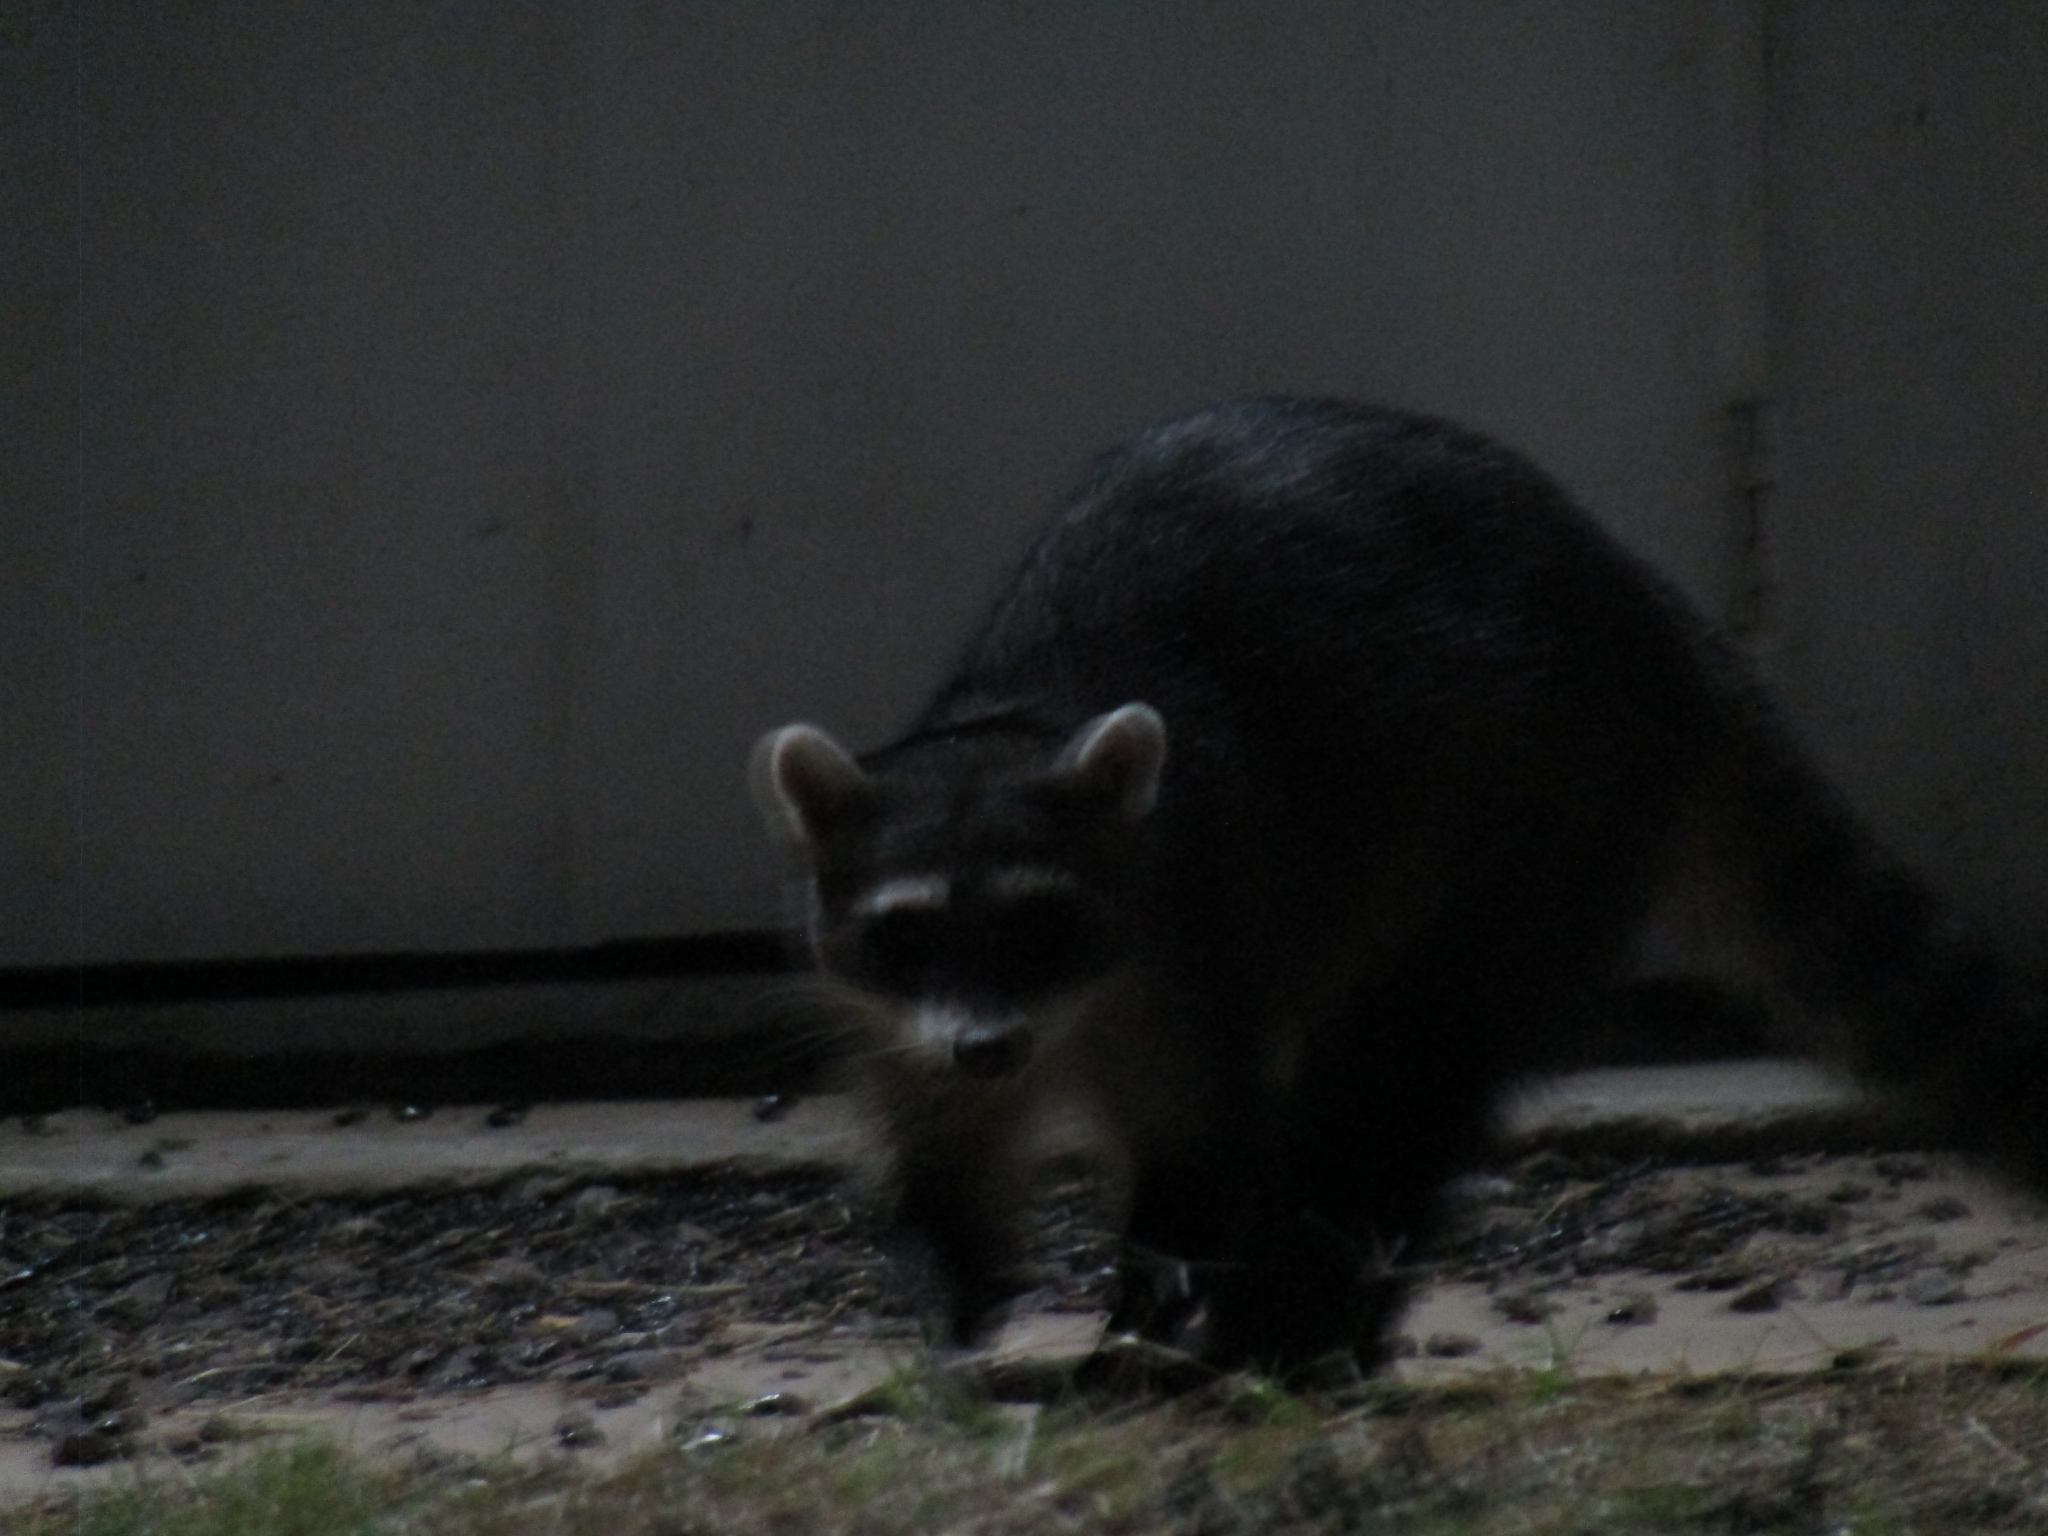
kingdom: Animalia
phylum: Chordata
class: Mammalia
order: Carnivora
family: Procyonidae
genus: Procyon
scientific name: Procyon cancrivorus
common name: Crab-eating raccoon
